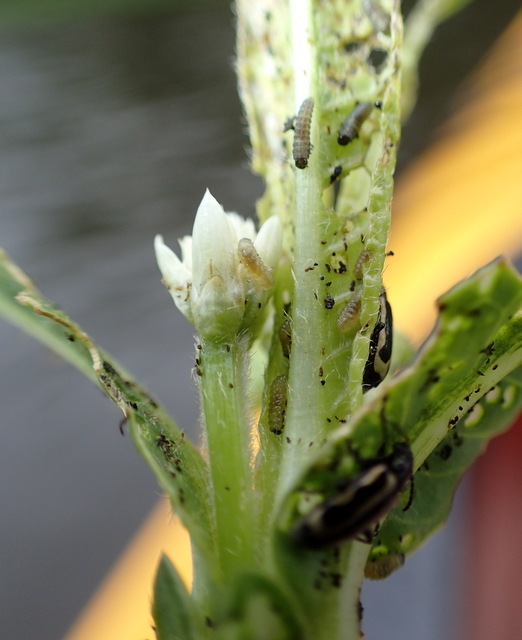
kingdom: Animalia
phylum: Arthropoda
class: Insecta
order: Coleoptera
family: Chrysomelidae
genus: Agasicles
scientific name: Agasicles hygrophila
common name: Alligatorweed flea beetle
